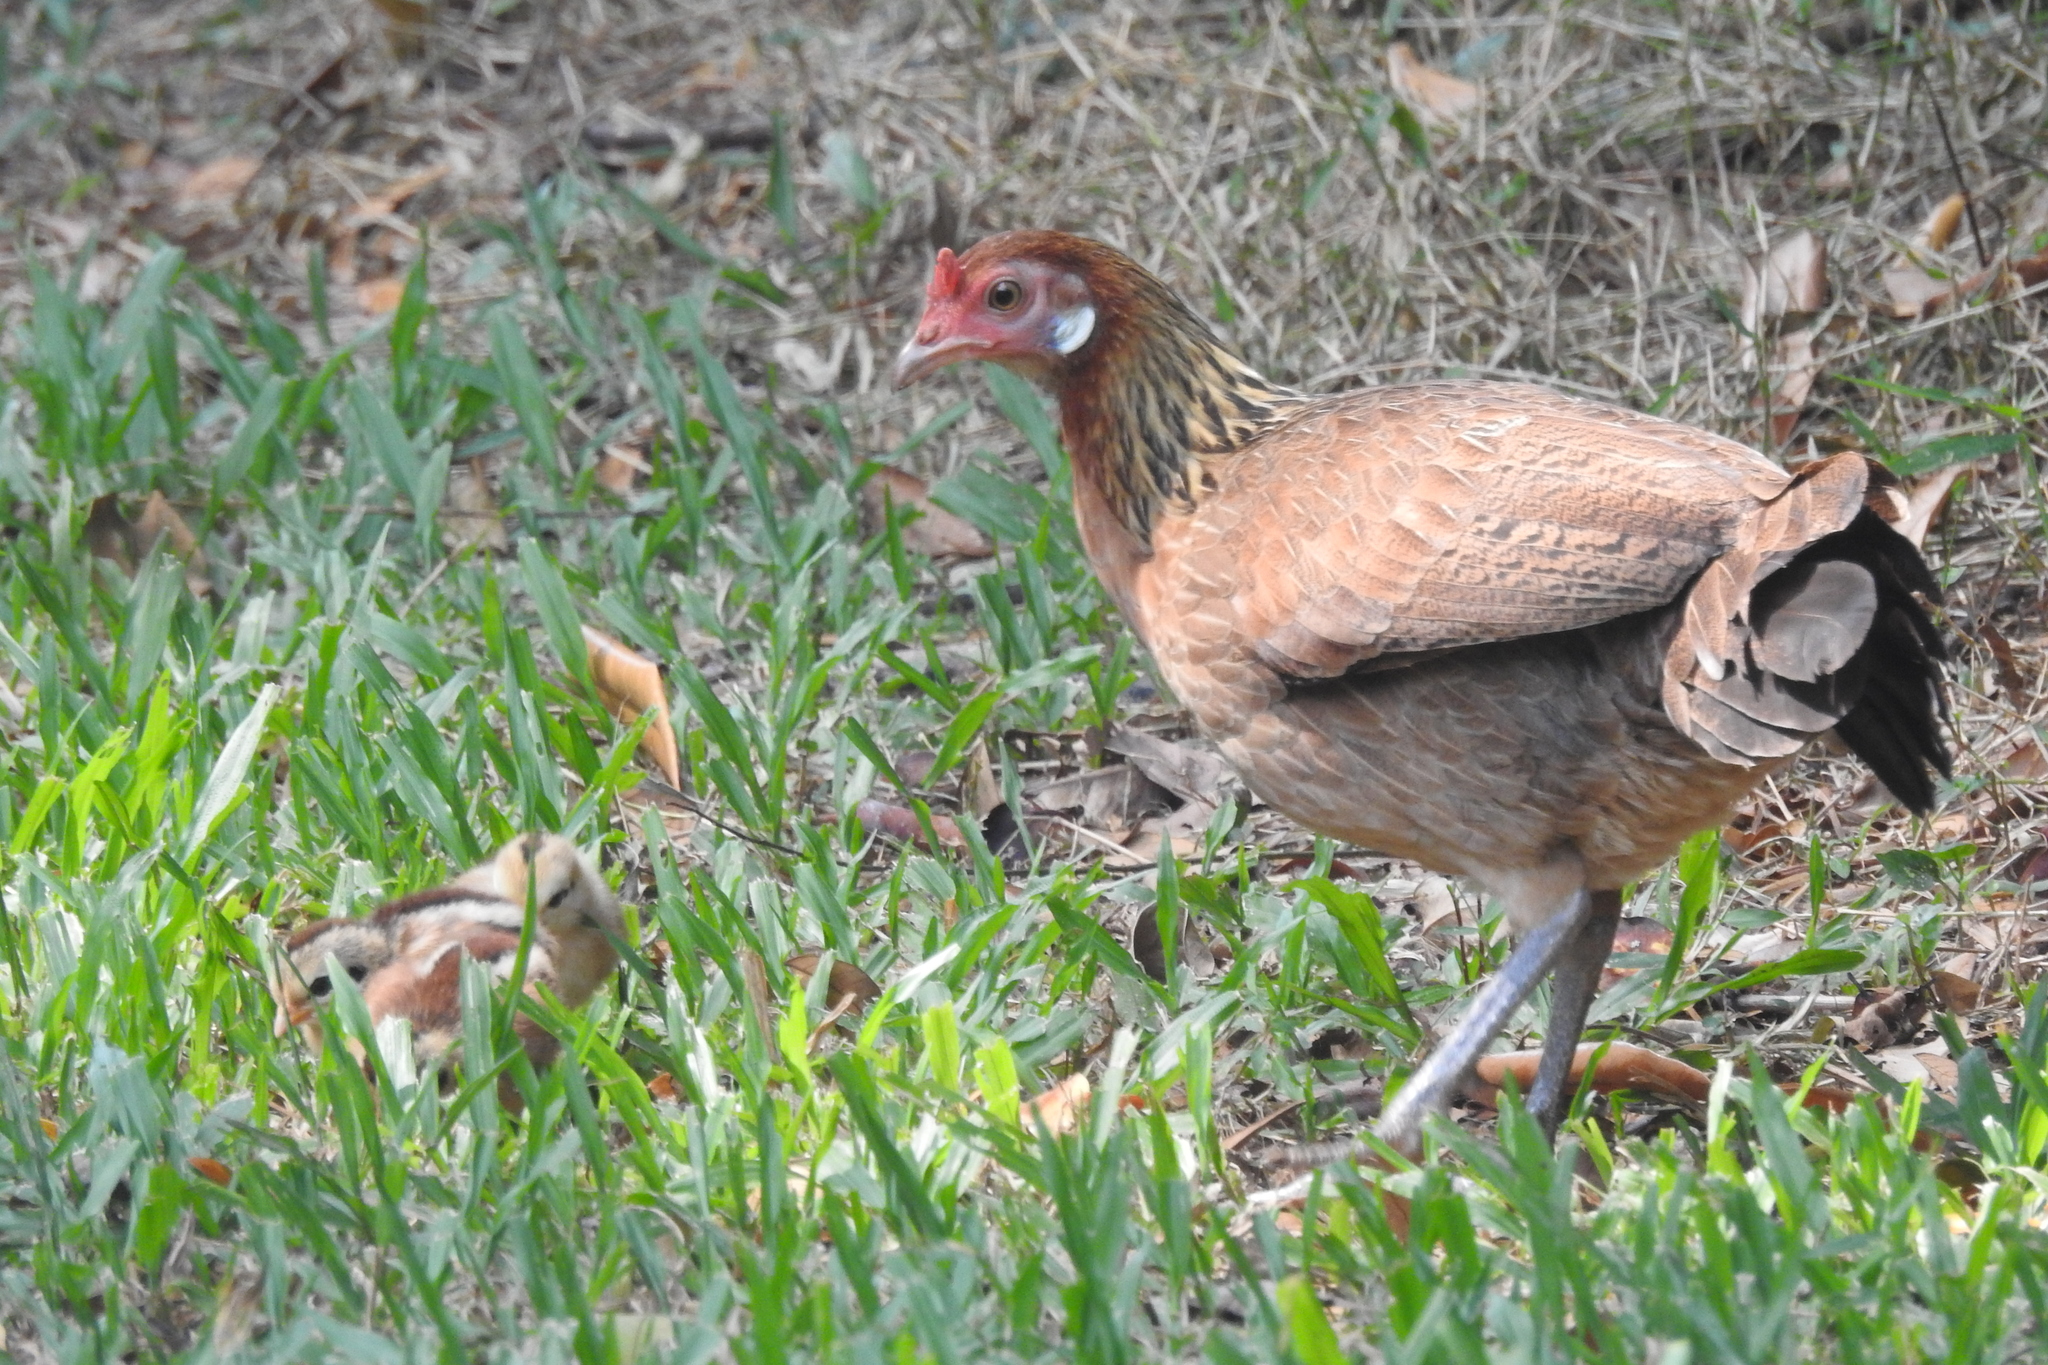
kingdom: Animalia
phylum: Chordata
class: Aves
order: Galliformes
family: Phasianidae
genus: Gallus
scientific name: Gallus gallus
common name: Red junglefowl
